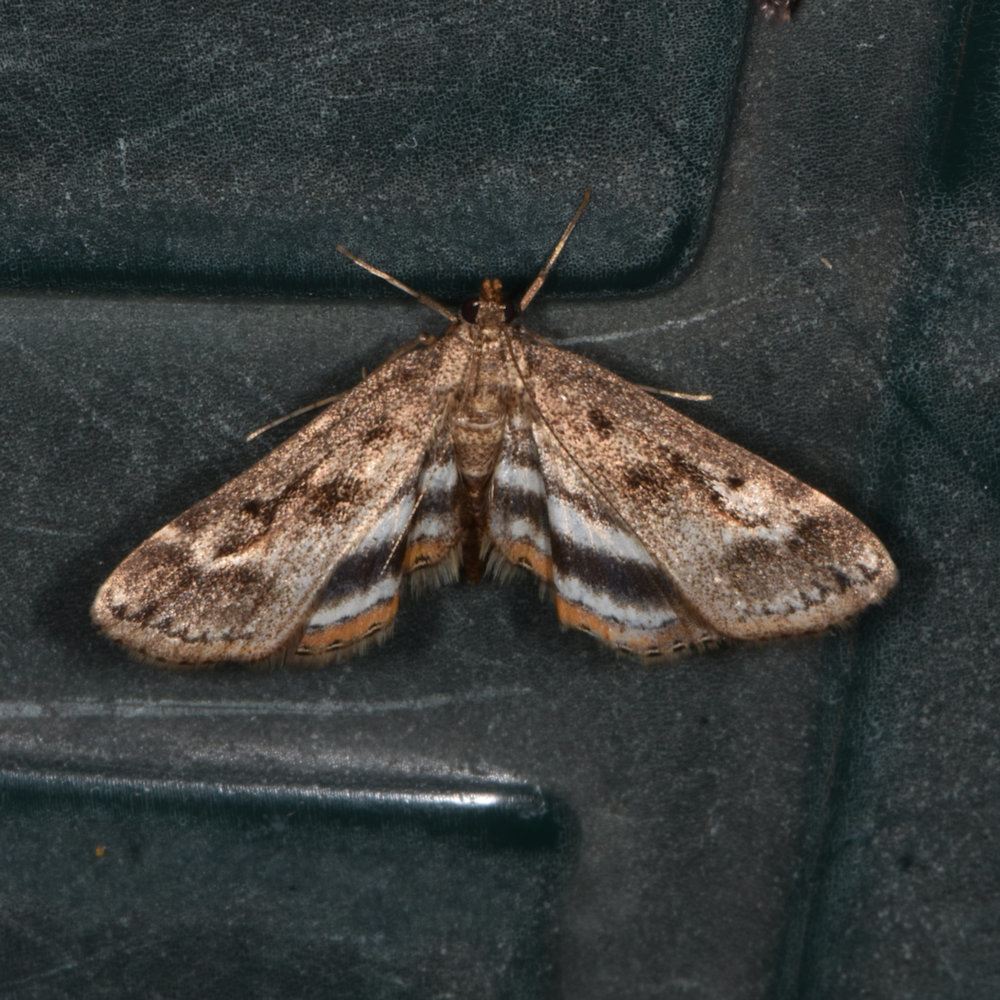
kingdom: Animalia
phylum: Arthropoda
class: Insecta
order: Lepidoptera
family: Crambidae
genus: Parapoynx
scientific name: Parapoynx obscuralis
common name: American china-mark
